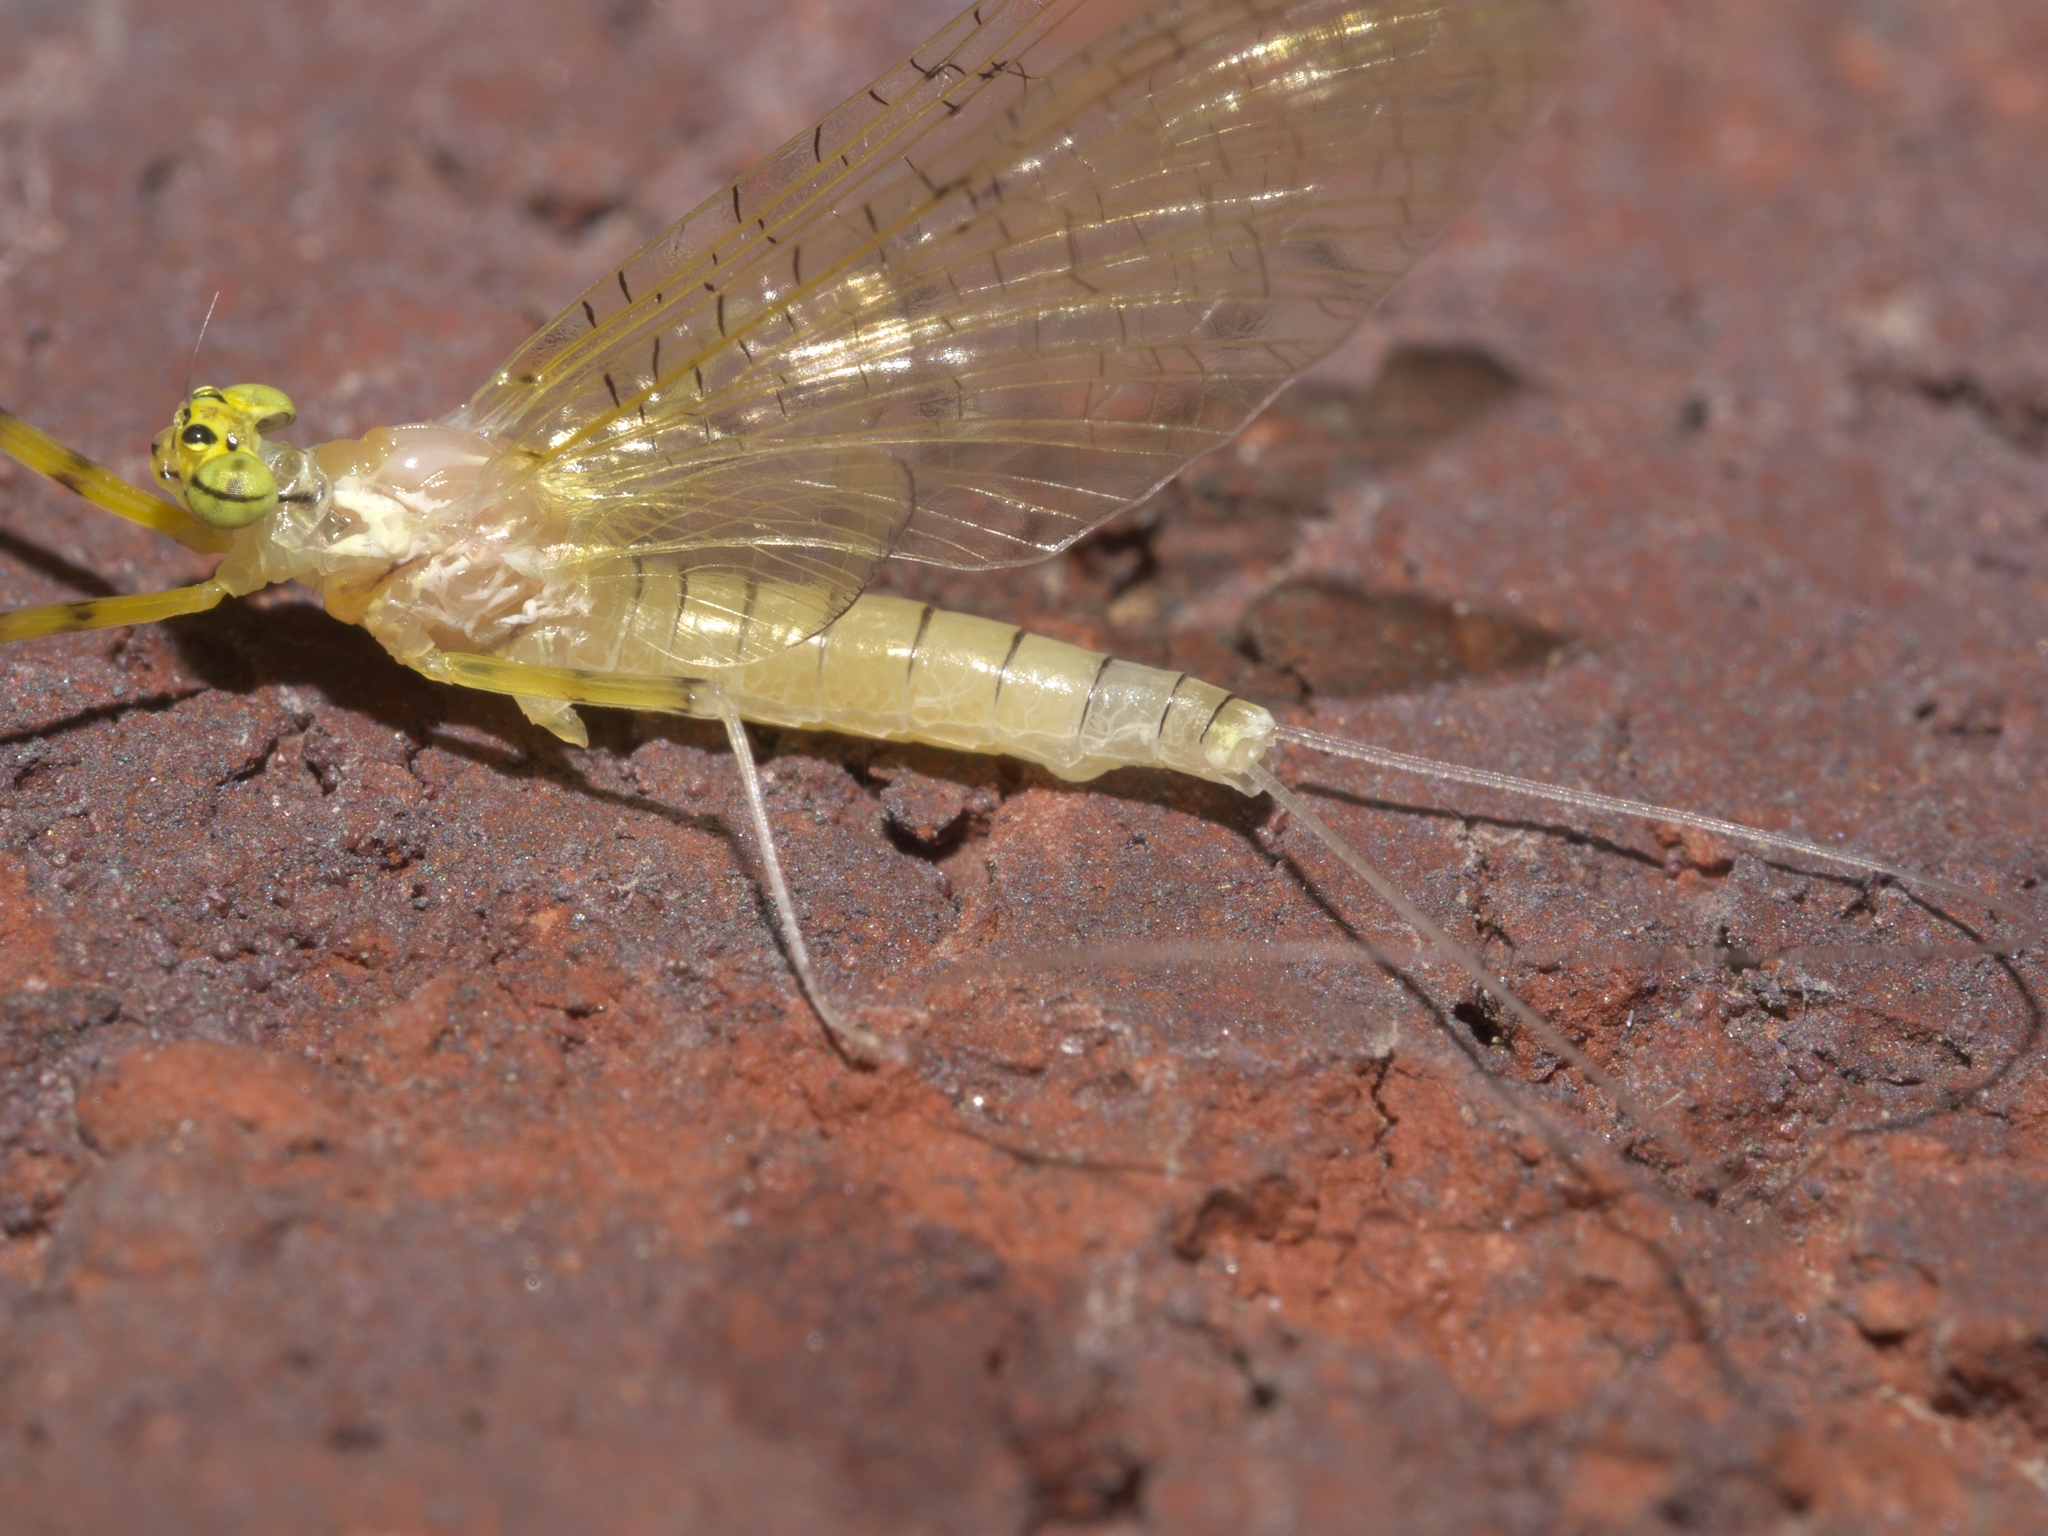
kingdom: Animalia
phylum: Arthropoda
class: Insecta
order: Ephemeroptera
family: Heptageniidae
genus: Stenacron
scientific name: Stenacron interpunctatum
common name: Orange cahill
